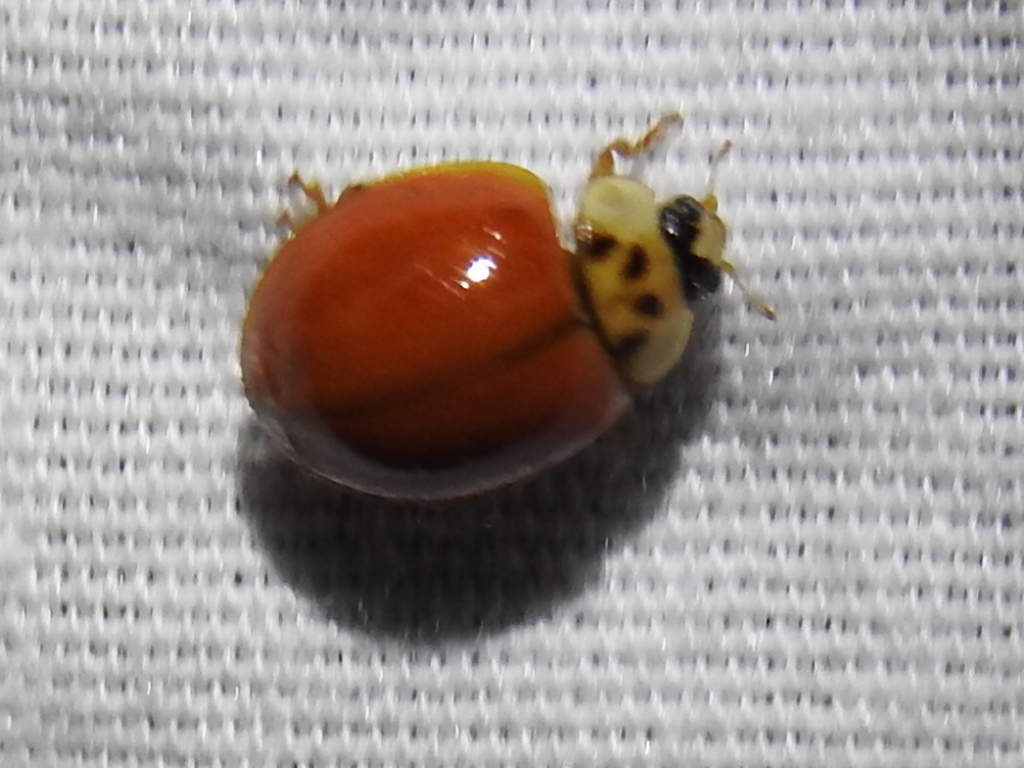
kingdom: Animalia
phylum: Arthropoda
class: Insecta
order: Coleoptera
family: Coccinellidae
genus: Harmonia
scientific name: Harmonia axyridis
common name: Harlequin ladybird
